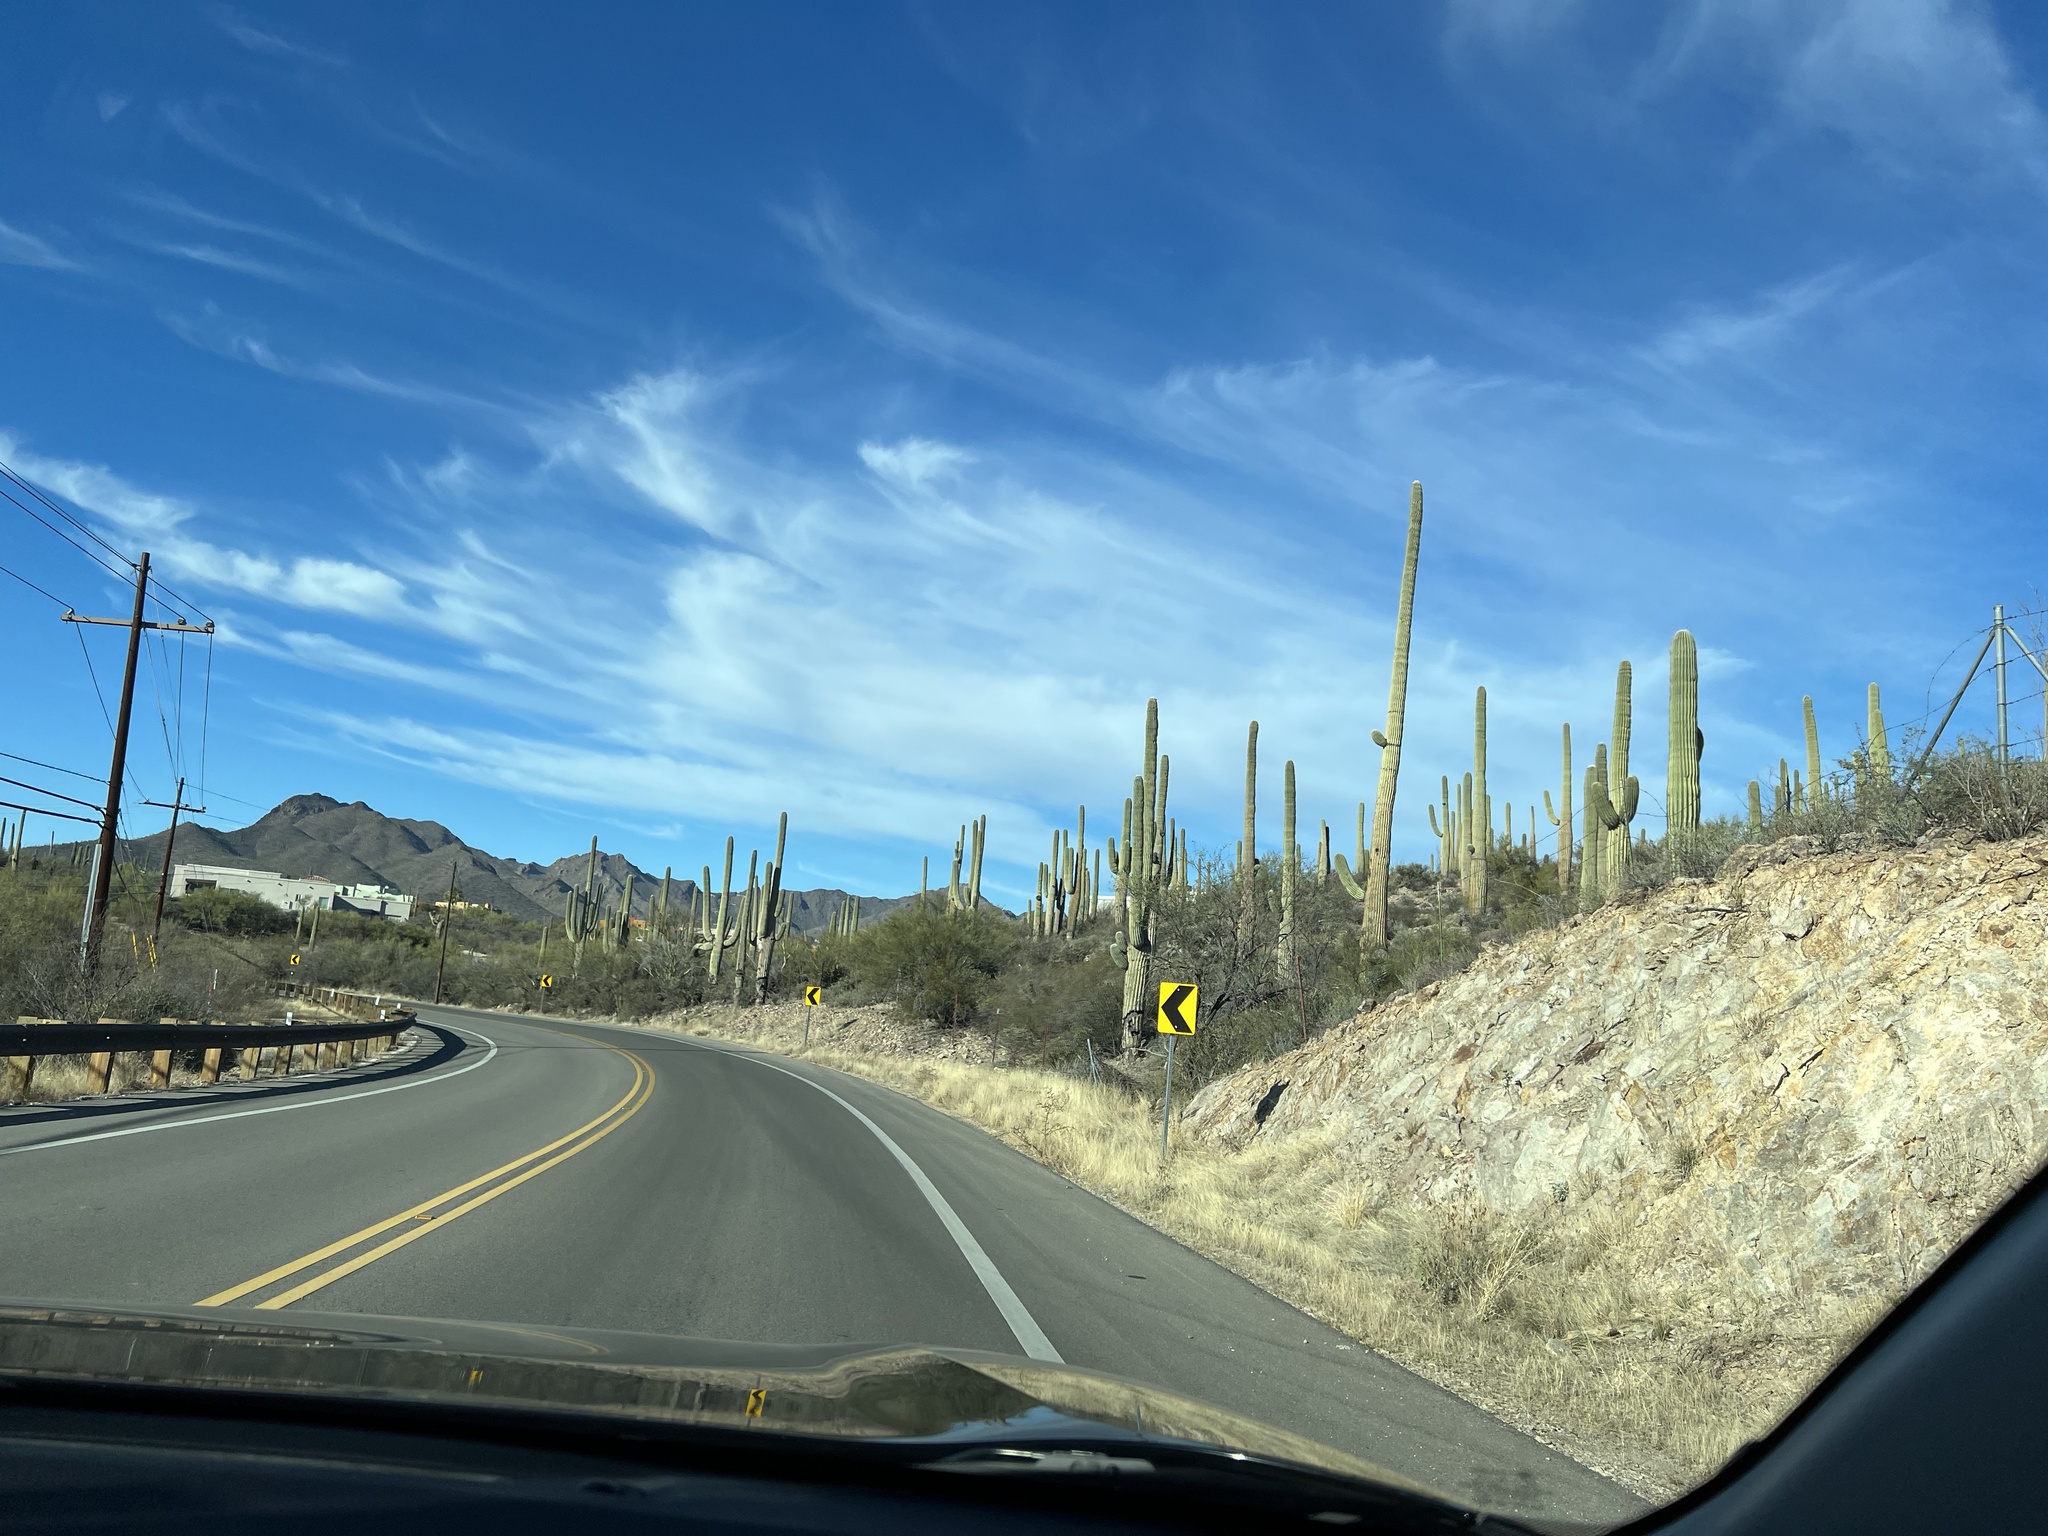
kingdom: Plantae
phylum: Tracheophyta
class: Magnoliopsida
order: Caryophyllales
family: Cactaceae
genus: Carnegiea
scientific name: Carnegiea gigantea
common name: Saguaro
